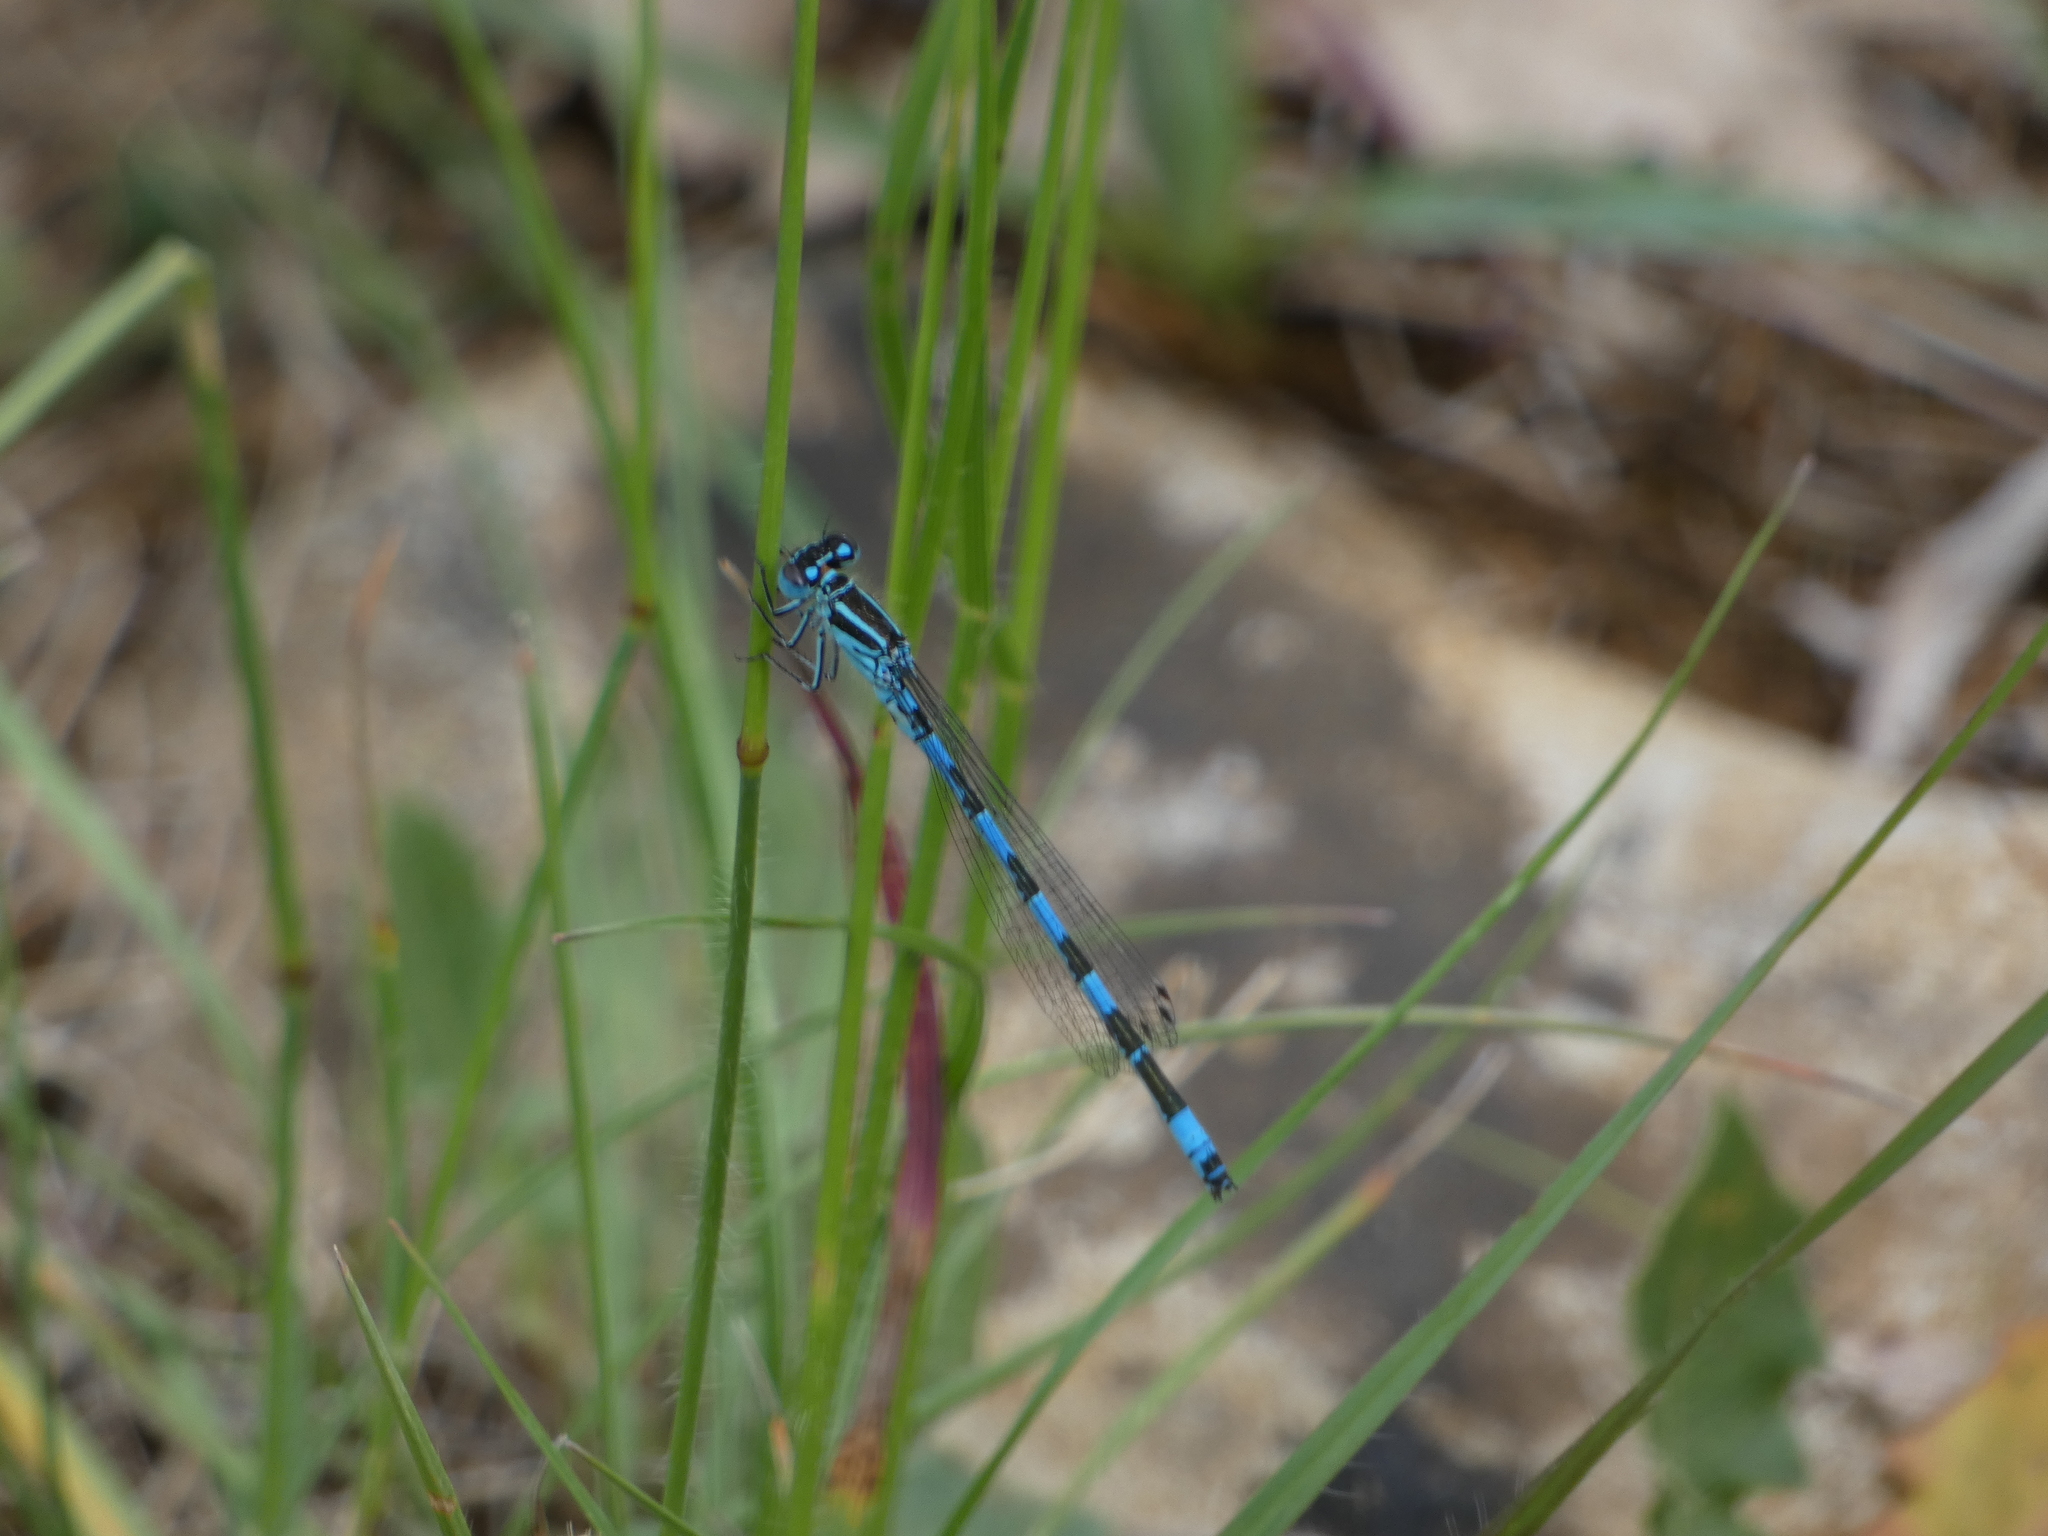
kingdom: Animalia
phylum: Arthropoda
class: Insecta
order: Odonata
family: Coenagrionidae
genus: Coenagrion
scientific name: Coenagrion mercuriale
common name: Southern damselfly
